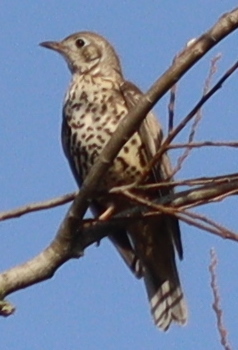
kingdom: Animalia
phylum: Chordata
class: Aves
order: Passeriformes
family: Turdidae
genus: Turdus
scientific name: Turdus viscivorus
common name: Mistle thrush
